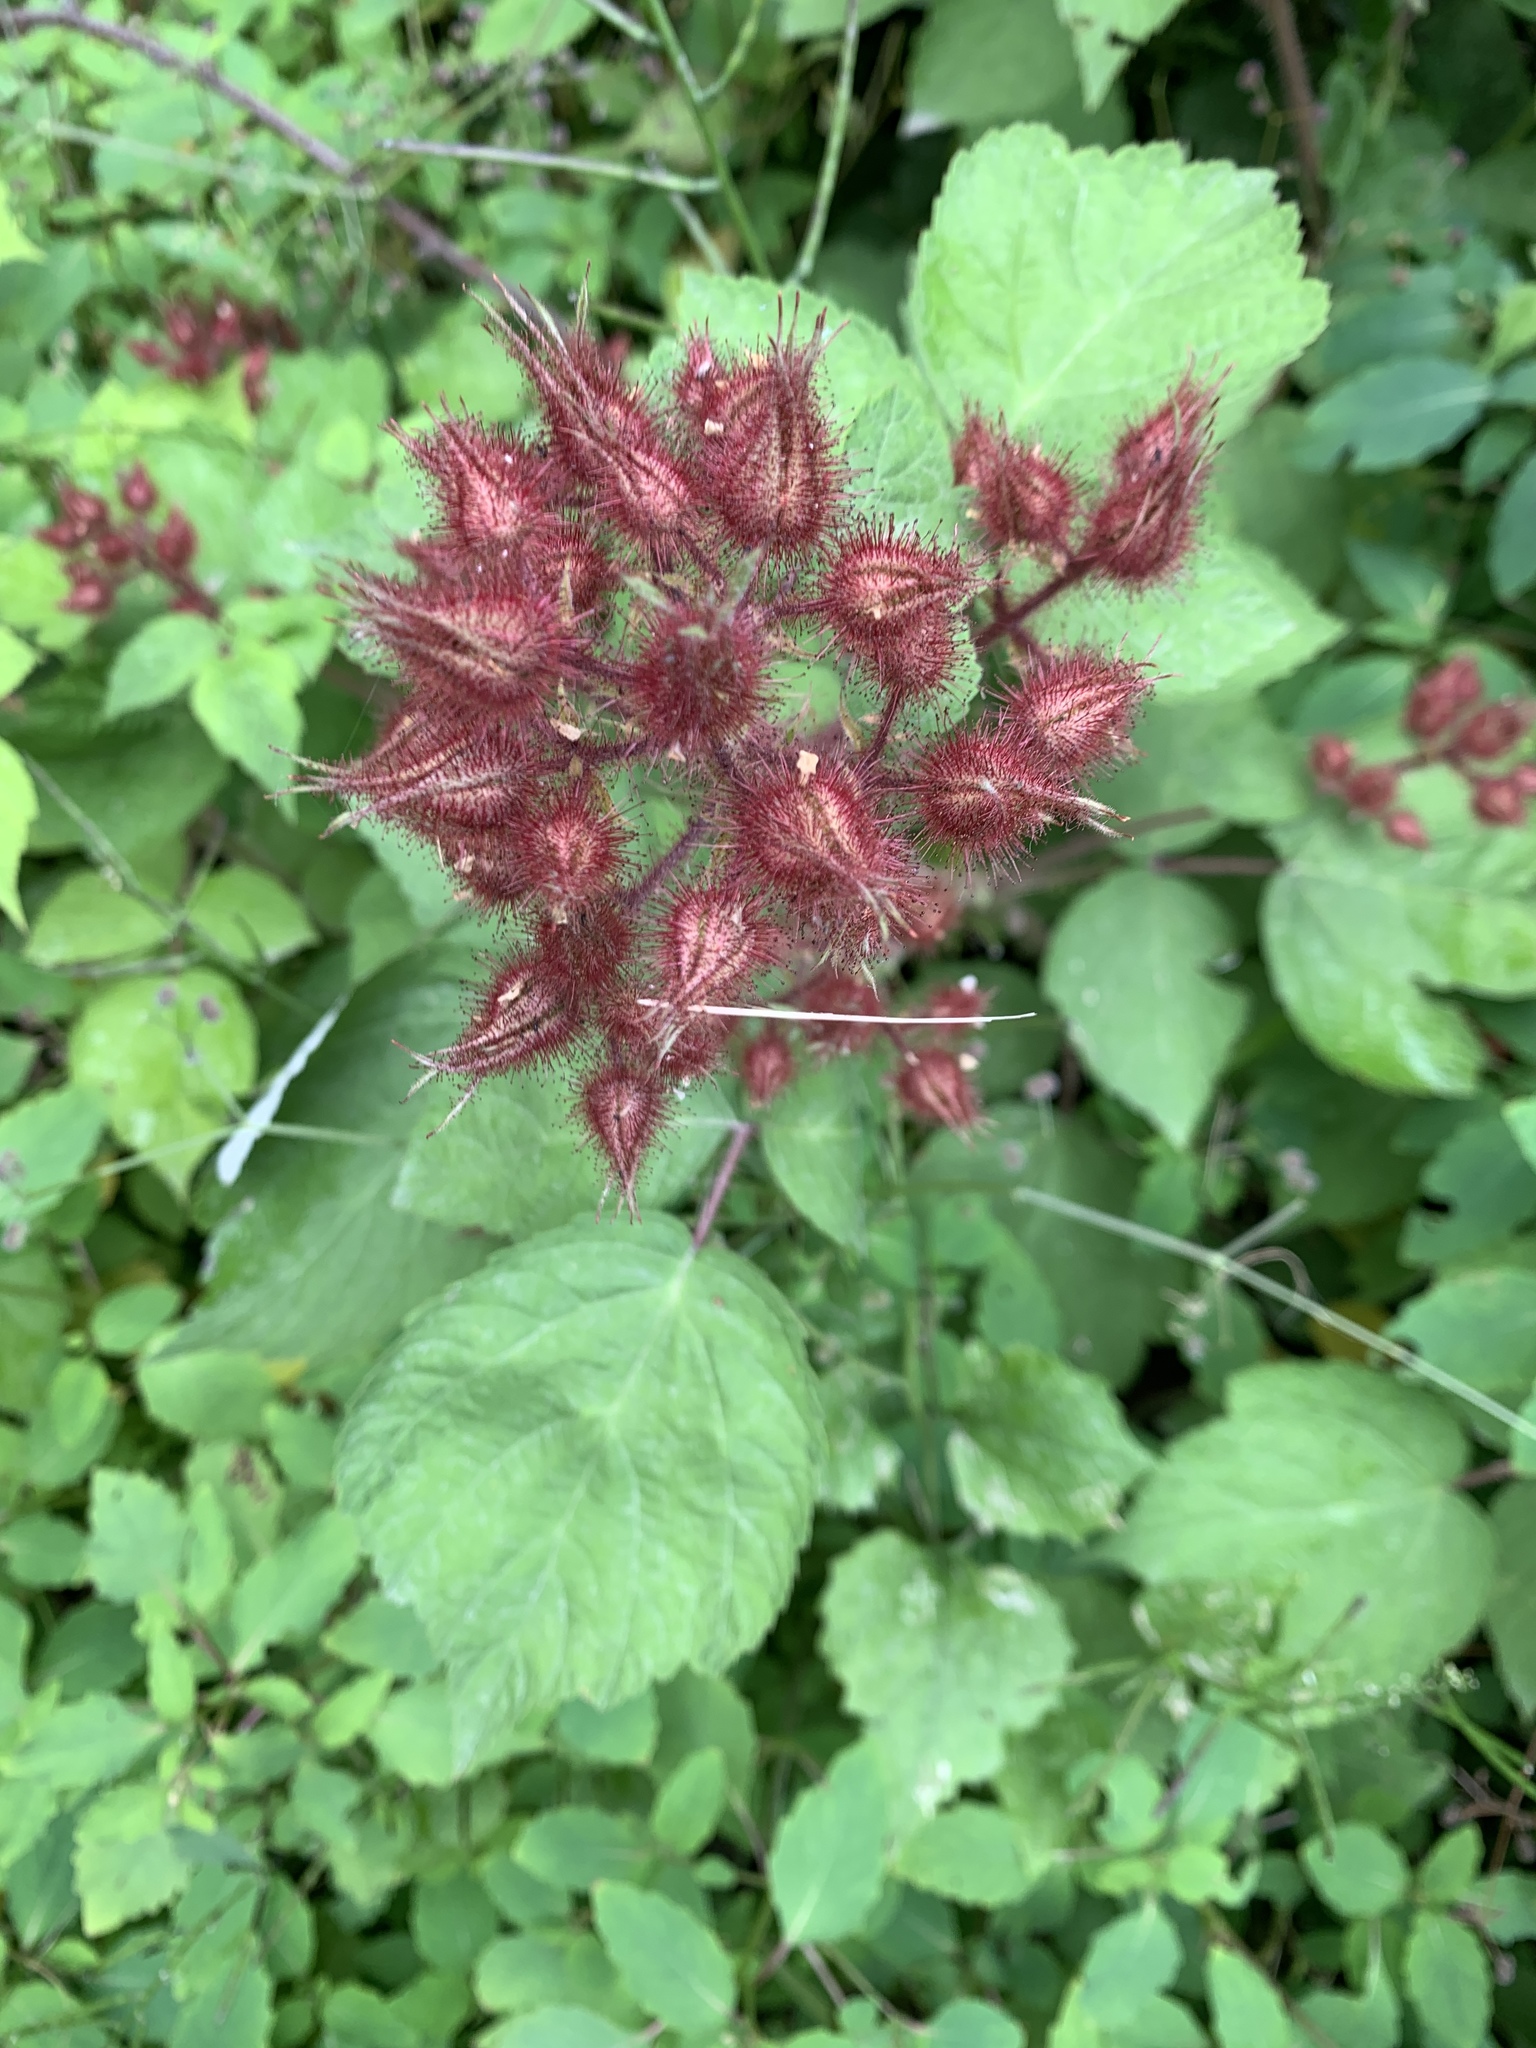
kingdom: Plantae
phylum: Tracheophyta
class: Magnoliopsida
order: Rosales
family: Rosaceae
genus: Rubus
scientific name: Rubus phoenicolasius
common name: Japanese wineberry
